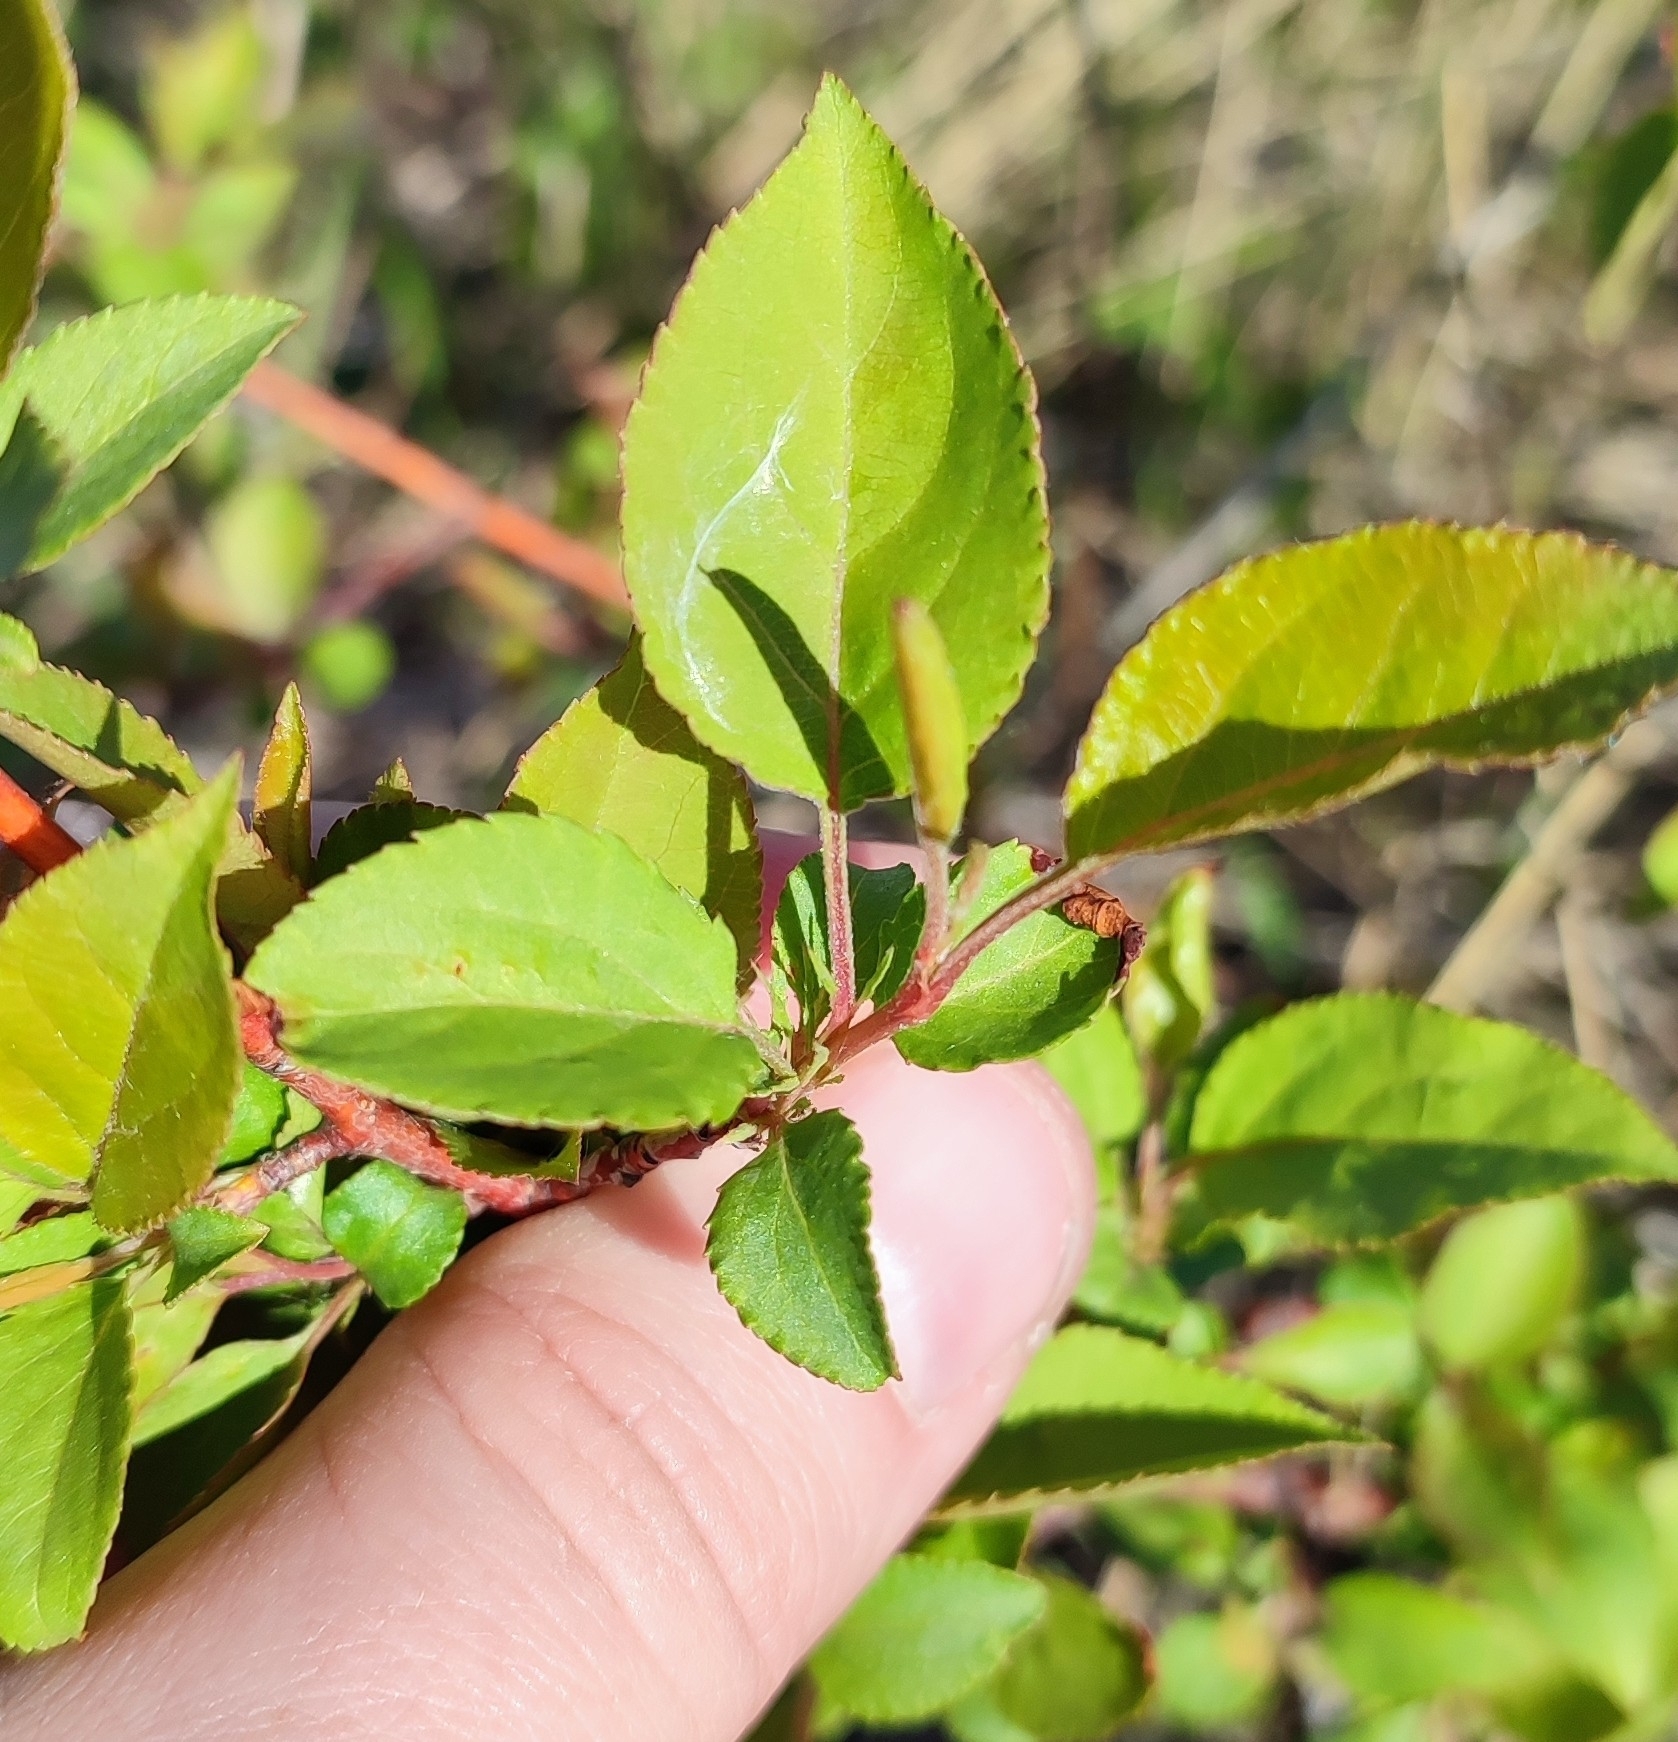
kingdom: Plantae
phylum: Tracheophyta
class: Magnoliopsida
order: Rosales
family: Rosaceae
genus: Malus
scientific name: Malus baccata
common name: Siberian crab
